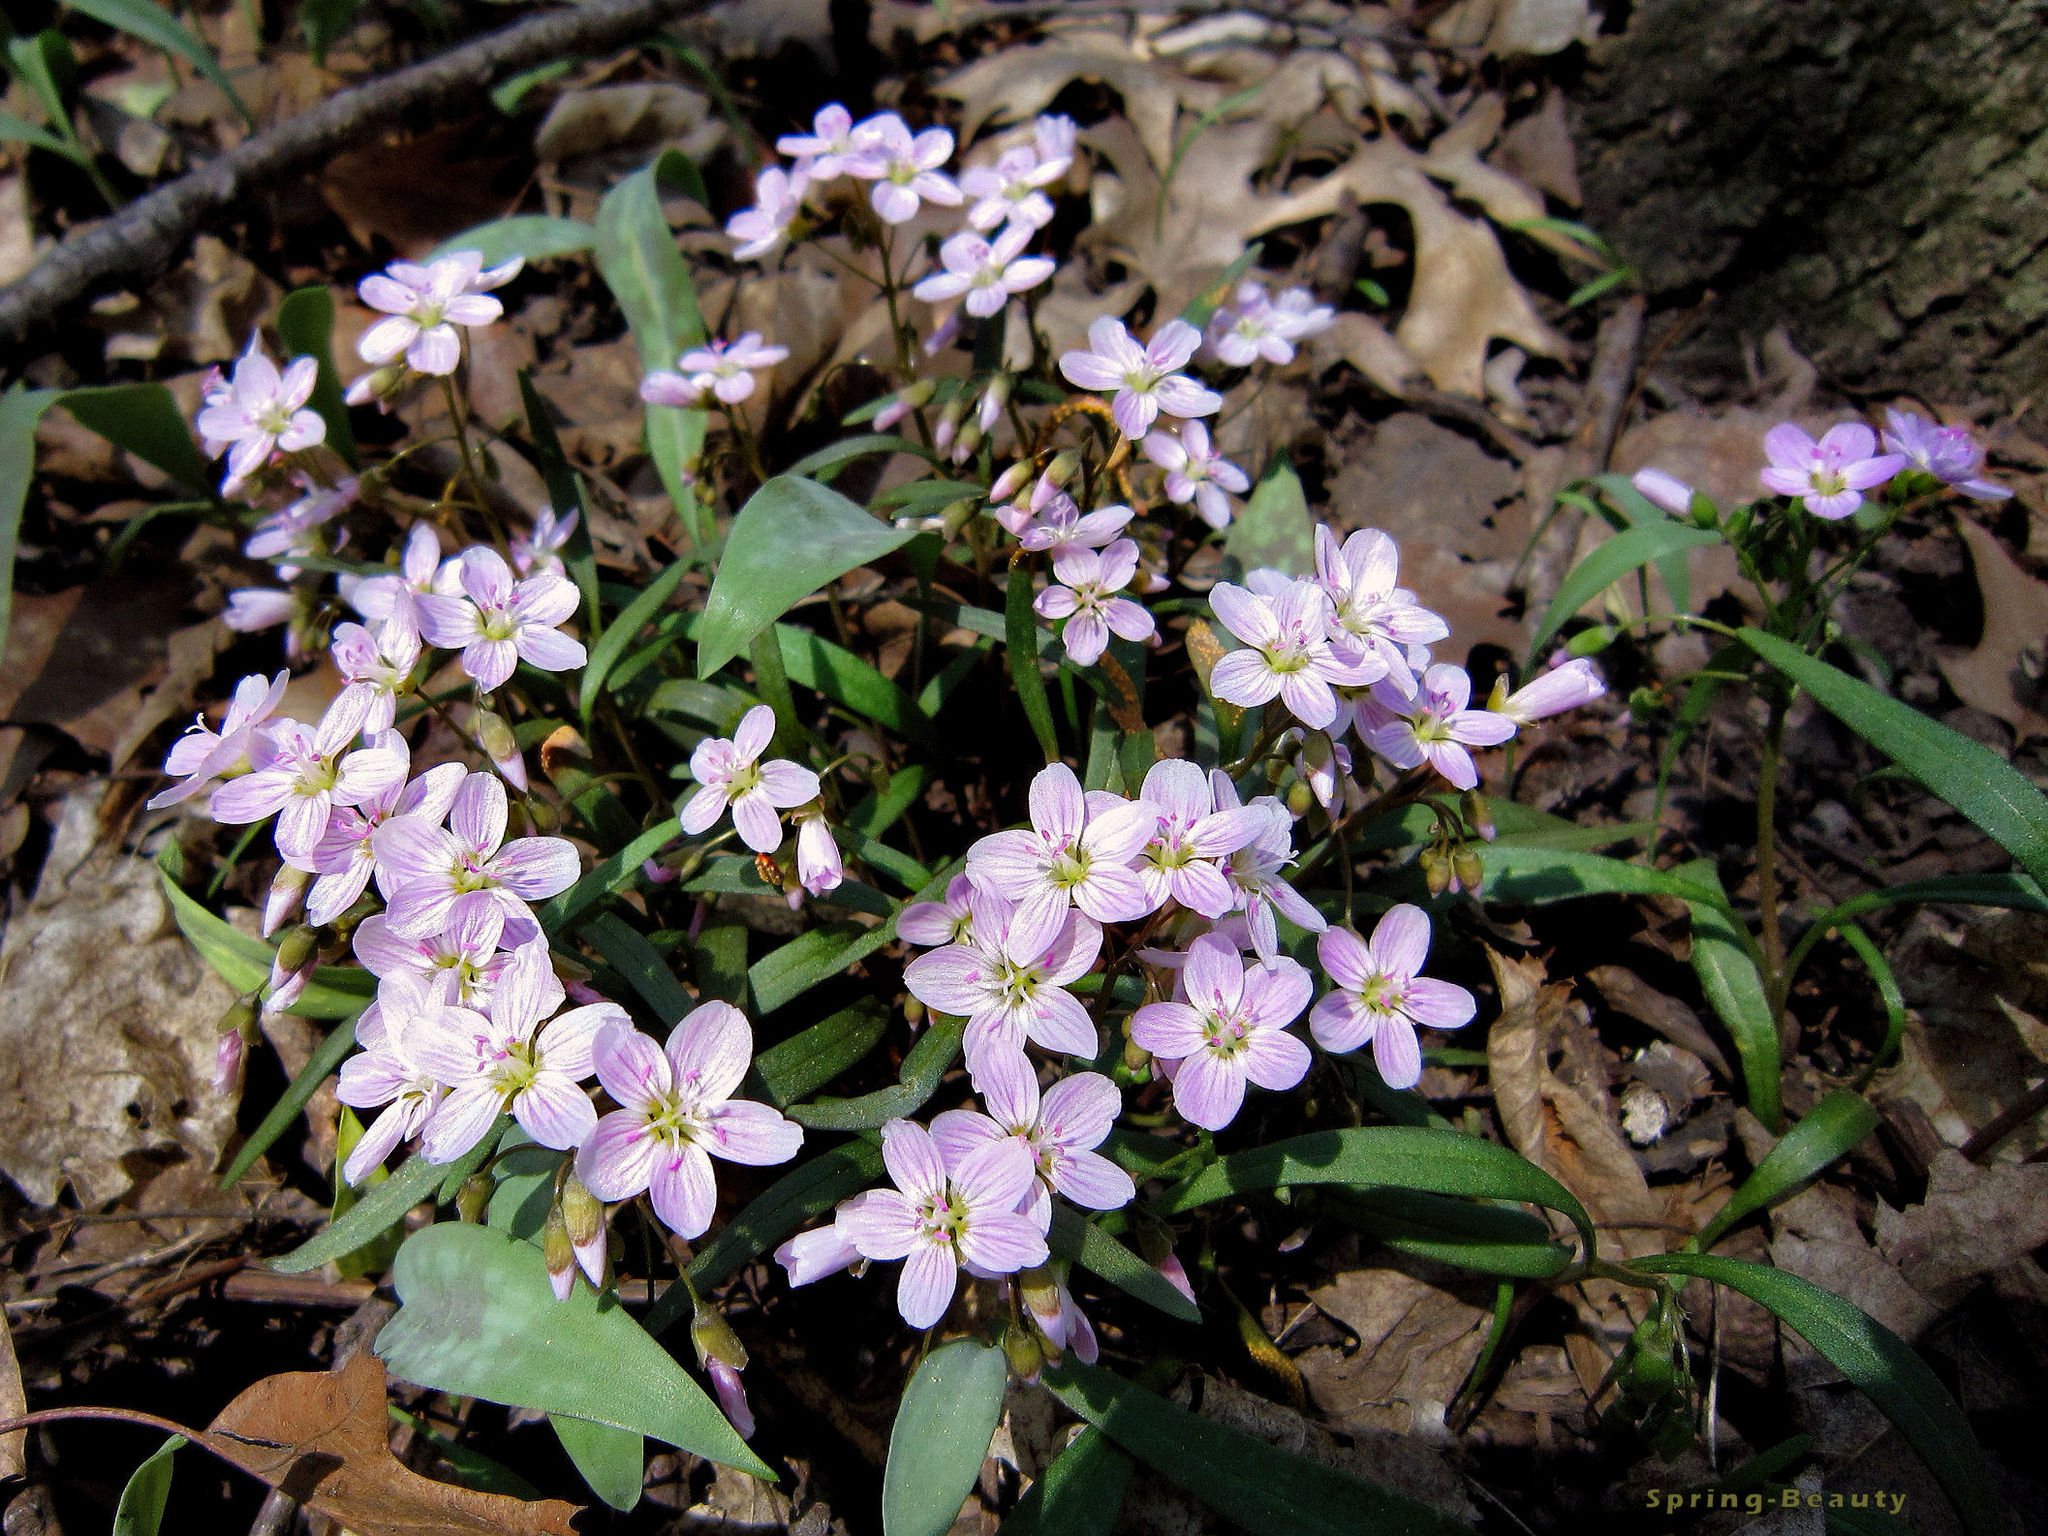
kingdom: Plantae
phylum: Tracheophyta
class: Magnoliopsida
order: Caryophyllales
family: Montiaceae
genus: Claytonia
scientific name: Claytonia virginica
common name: Virginia springbeauty
